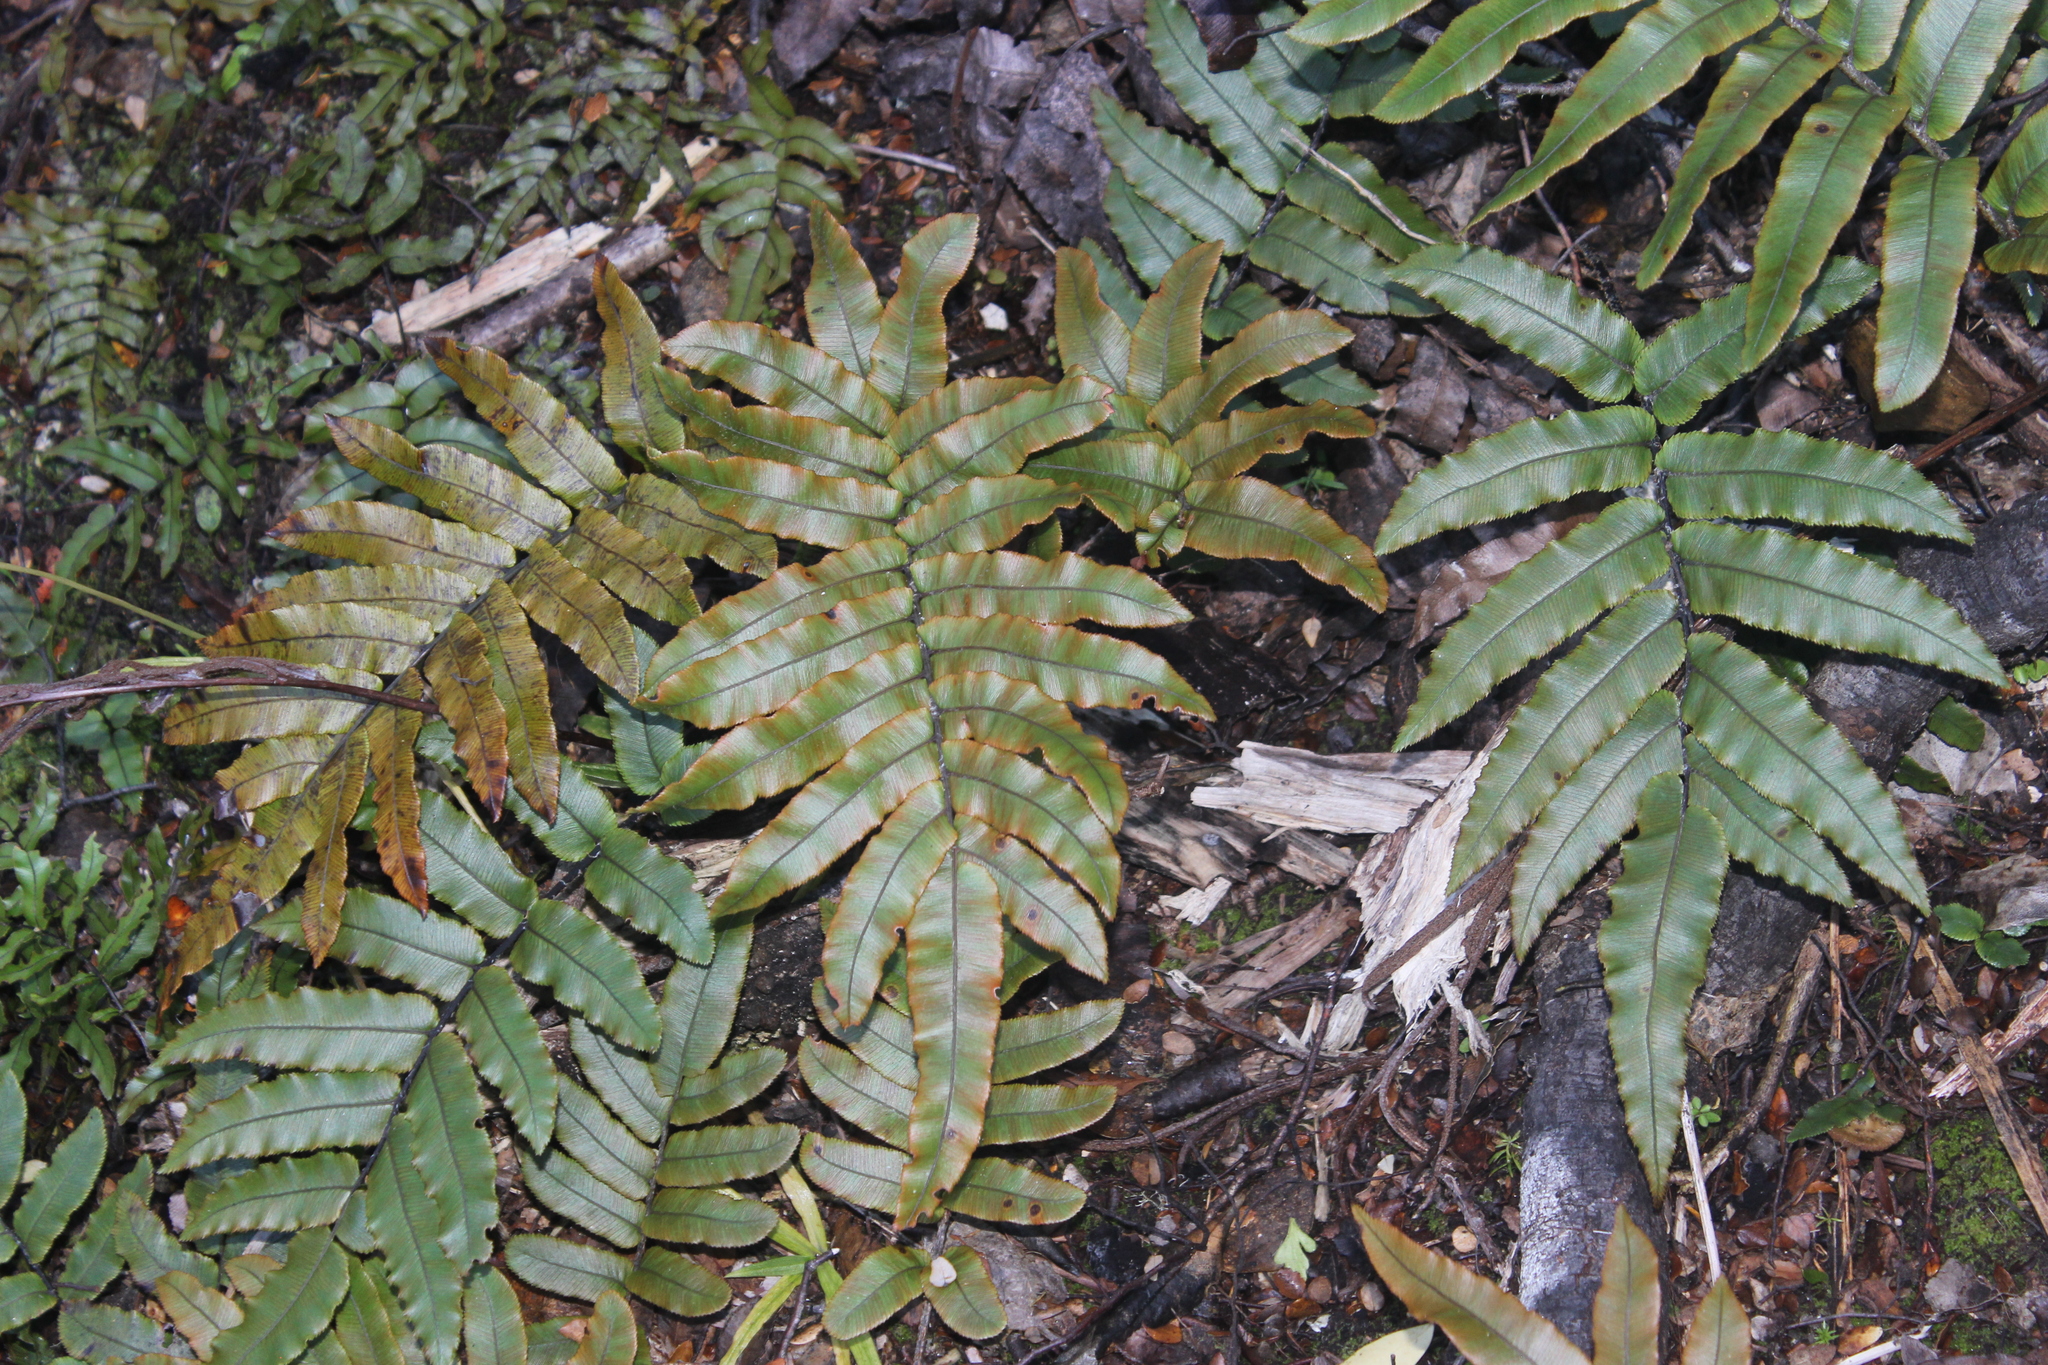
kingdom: Plantae
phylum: Tracheophyta
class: Polypodiopsida
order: Polypodiales
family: Blechnaceae
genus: Parablechnum
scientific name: Parablechnum procerum
